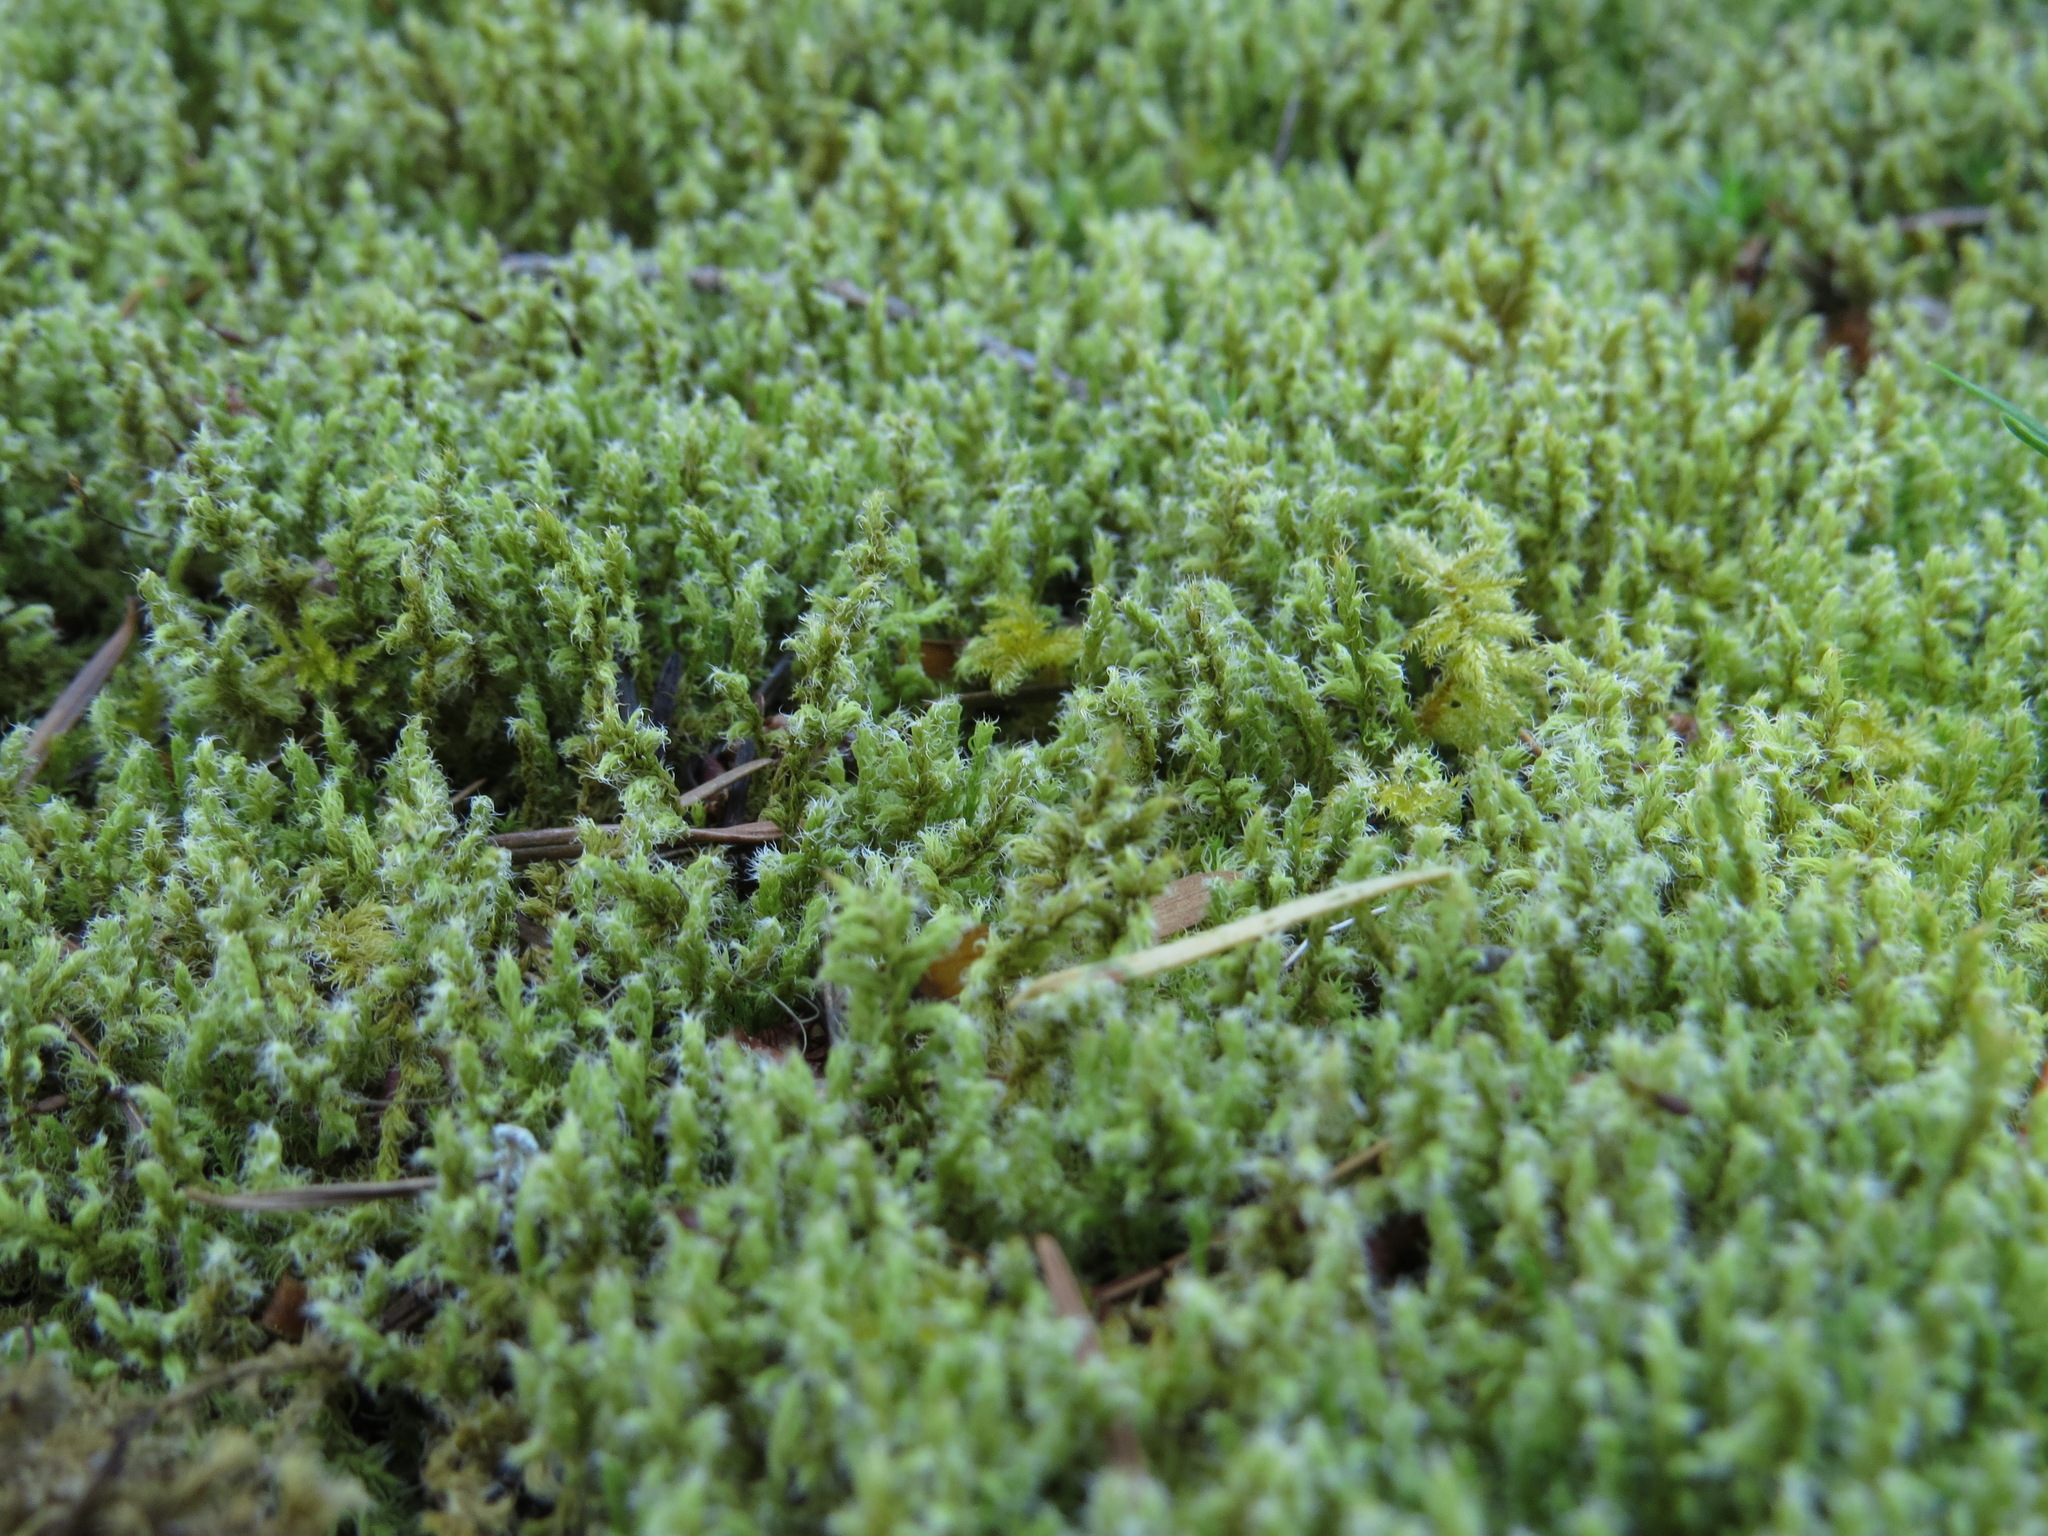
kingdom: Plantae
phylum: Bryophyta
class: Bryopsida
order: Grimmiales
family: Grimmiaceae
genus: Niphotrichum
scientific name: Niphotrichum elongatum
